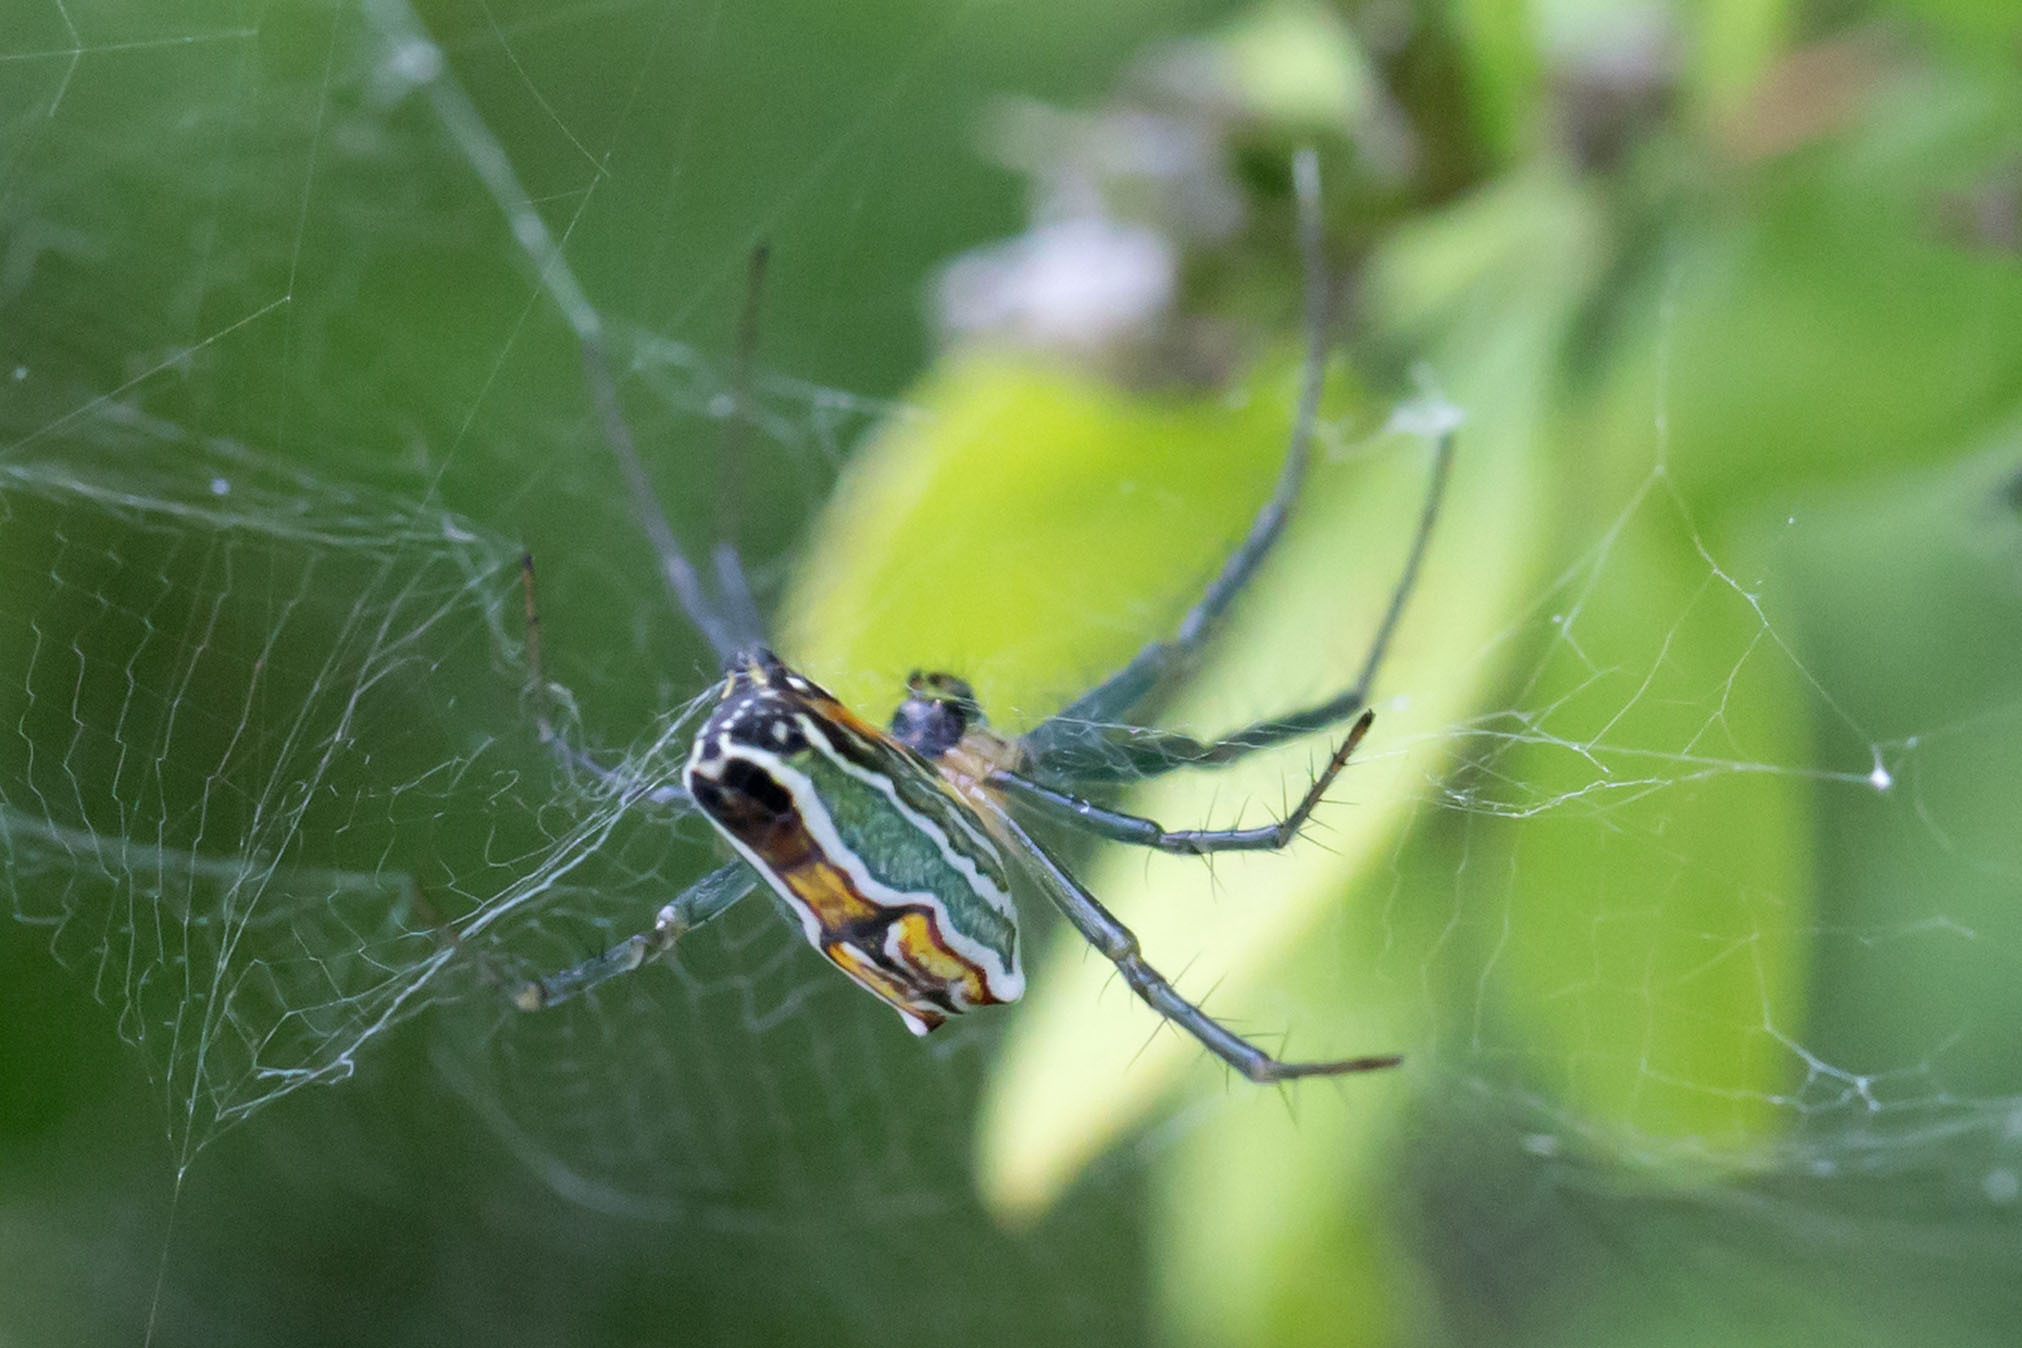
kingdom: Animalia
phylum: Arthropoda
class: Arachnida
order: Araneae
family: Araneidae
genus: Mecynogea
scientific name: Mecynogea lemniscata
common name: Orb weavers
